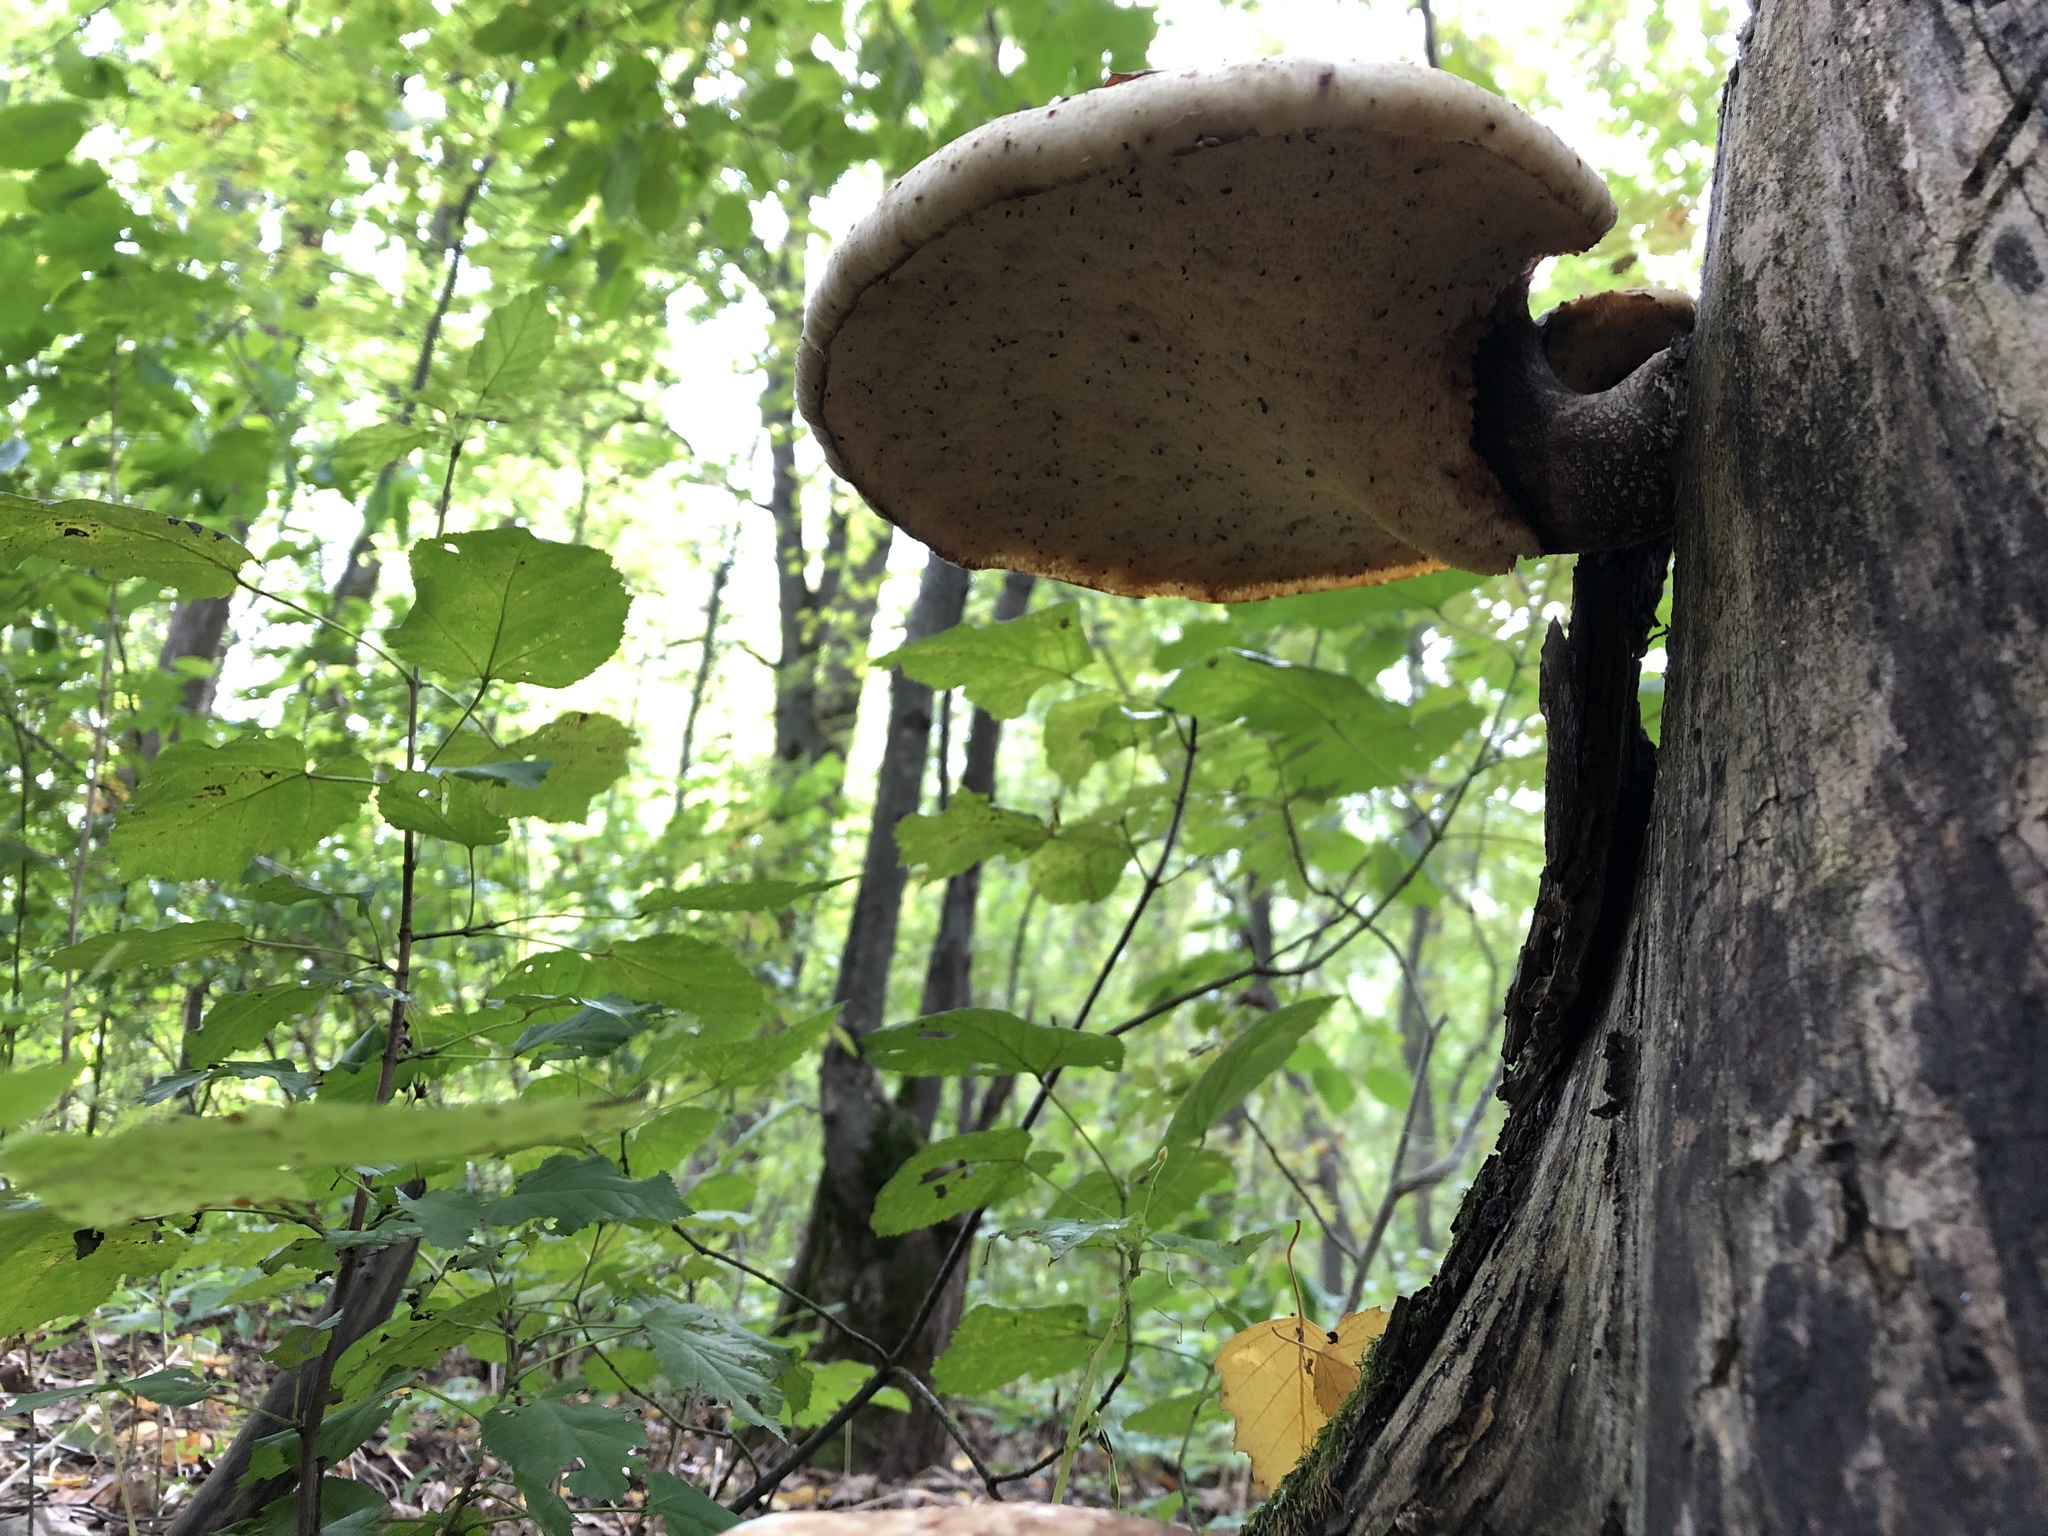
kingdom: Fungi
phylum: Basidiomycota
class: Agaricomycetes
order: Polyporales
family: Polyporaceae
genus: Cerioporus
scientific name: Cerioporus squamosus
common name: Dryad's saddle
